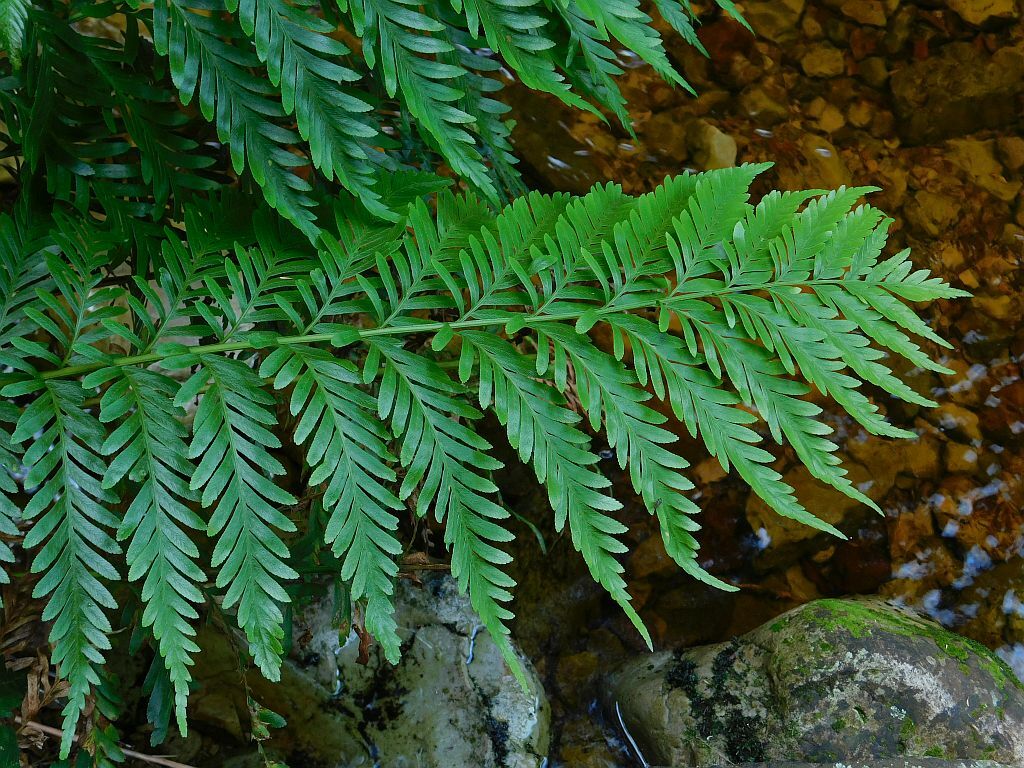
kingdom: Plantae
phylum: Tracheophyta
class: Polypodiopsida
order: Osmundales
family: Osmundaceae
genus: Todea
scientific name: Todea barbara
